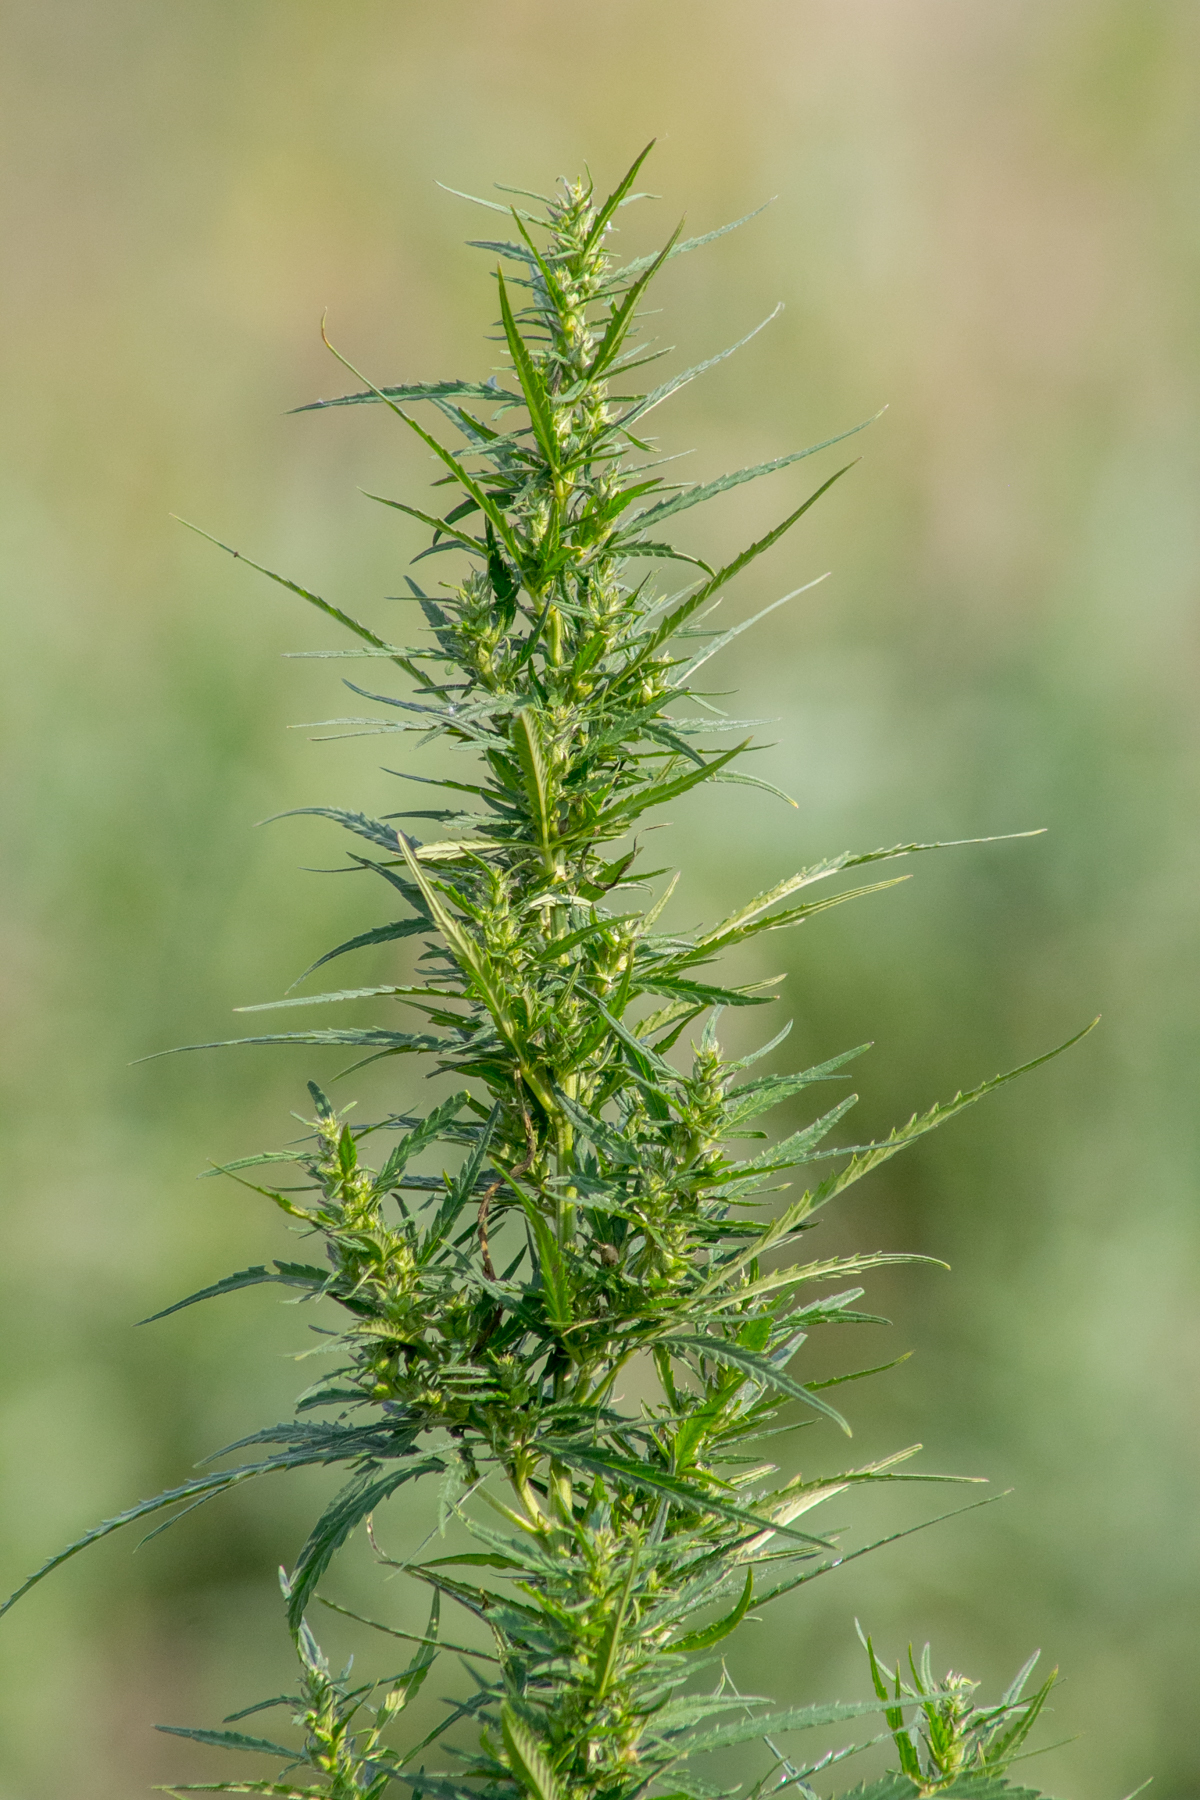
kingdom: Plantae
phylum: Tracheophyta
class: Magnoliopsida
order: Rosales
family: Cannabaceae
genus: Cannabis
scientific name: Cannabis sativa
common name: Hemp
